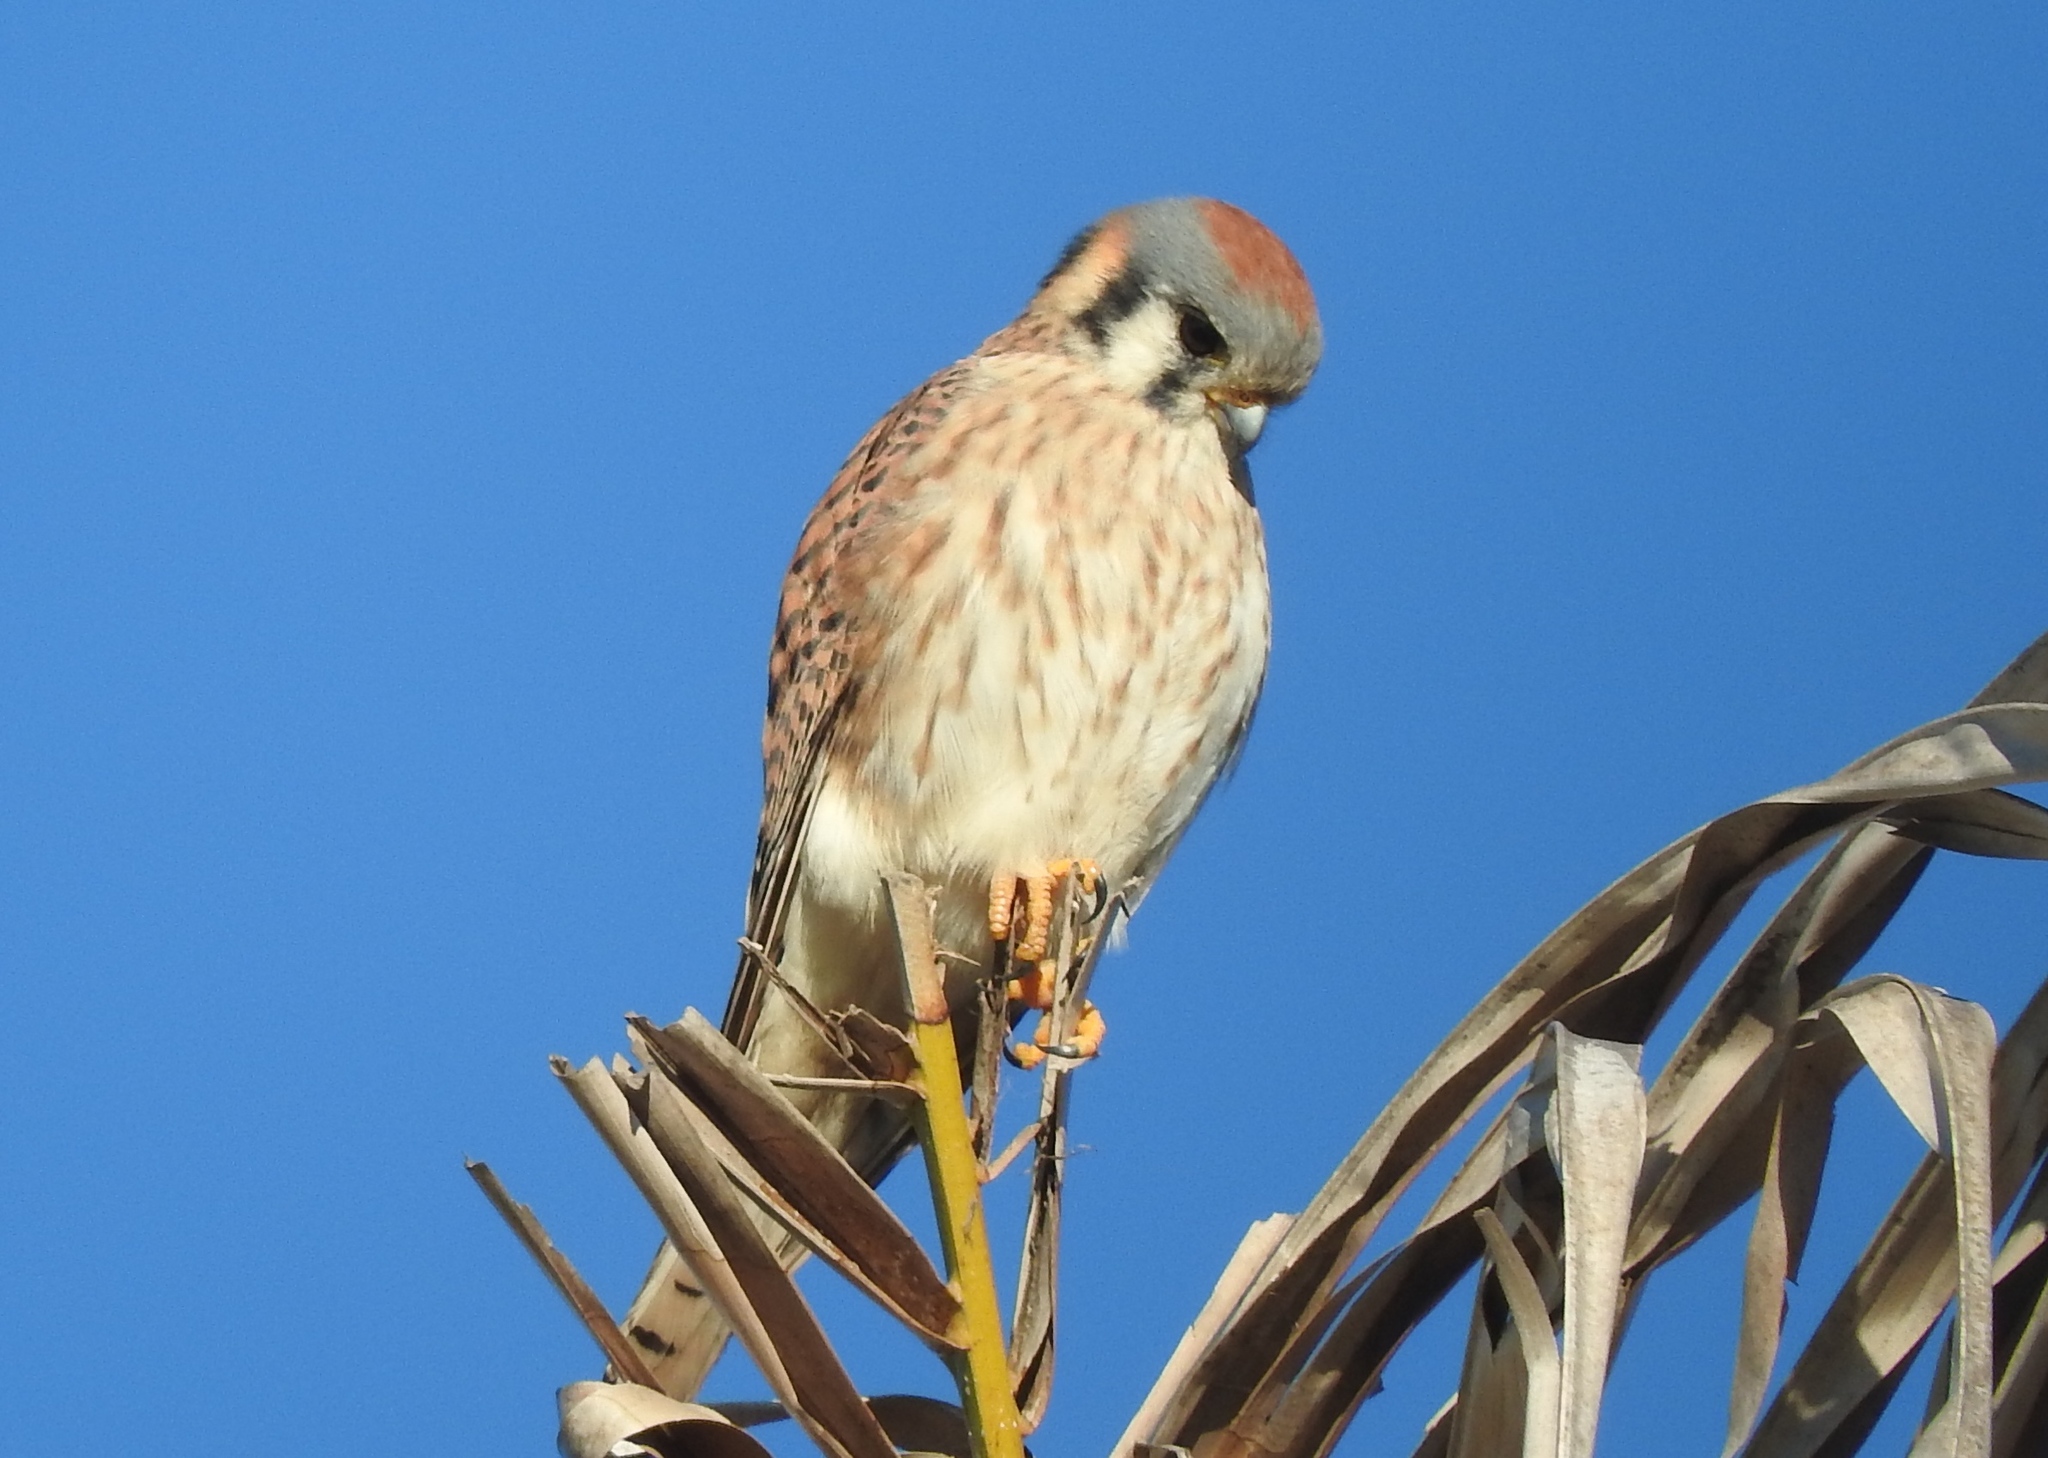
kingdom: Animalia
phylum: Chordata
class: Aves
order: Falconiformes
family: Falconidae
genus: Falco
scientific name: Falco sparverius
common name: American kestrel
